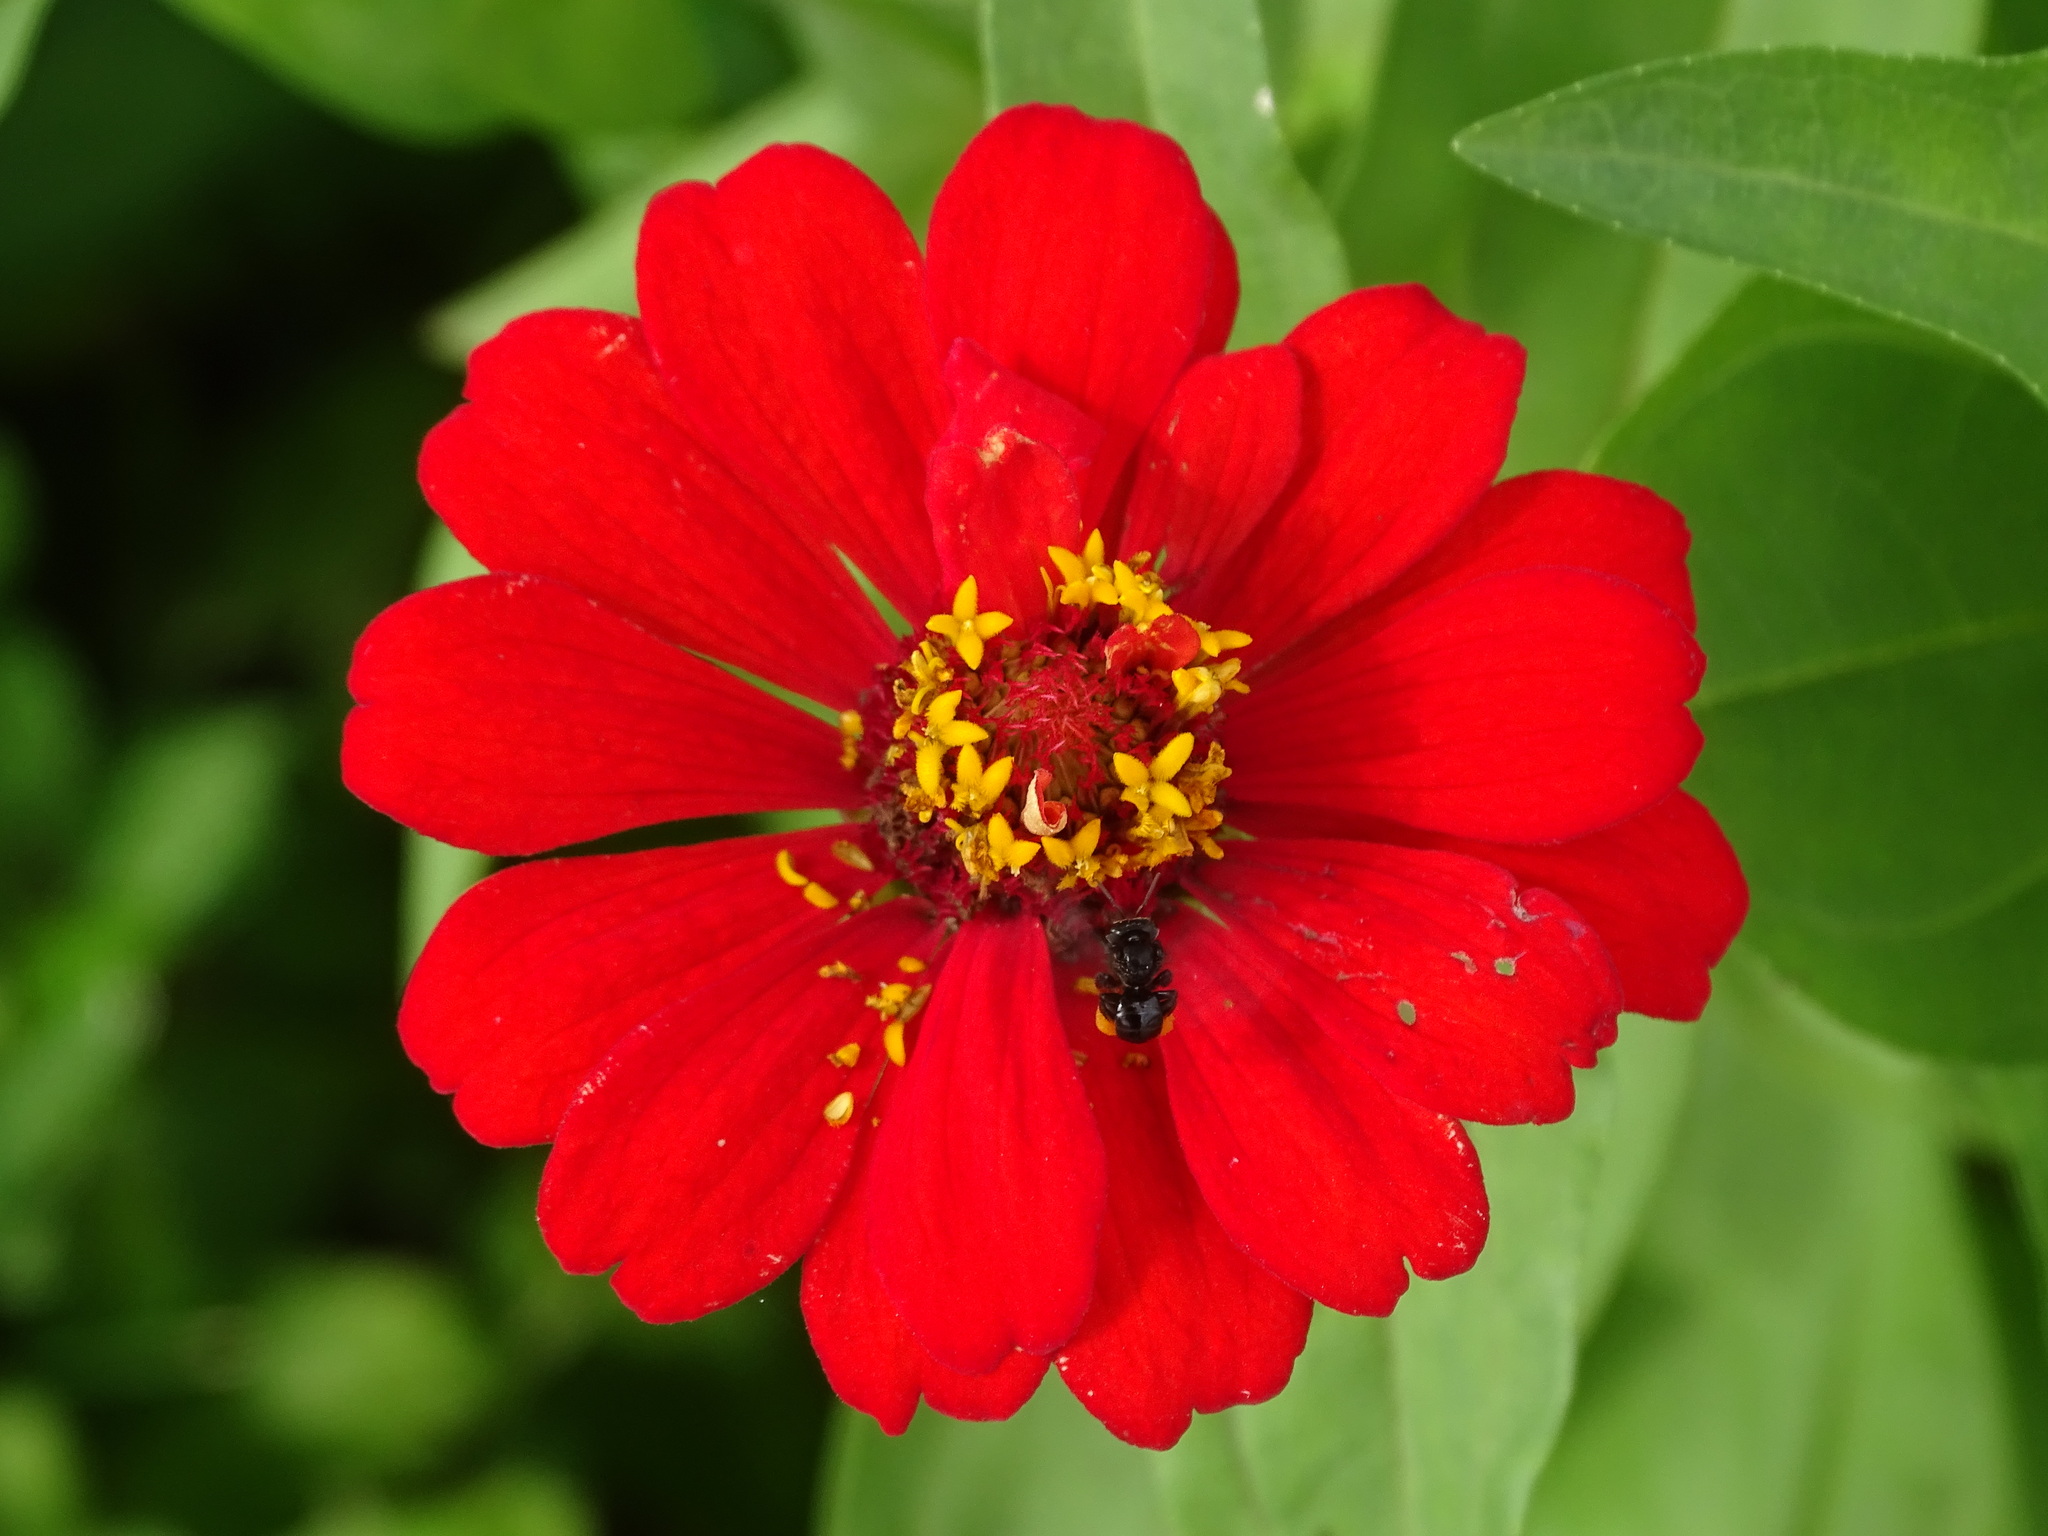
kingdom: Plantae
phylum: Tracheophyta
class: Magnoliopsida
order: Asterales
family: Asteraceae
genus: Zinnia
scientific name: Zinnia elegans
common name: Youth-and-age
